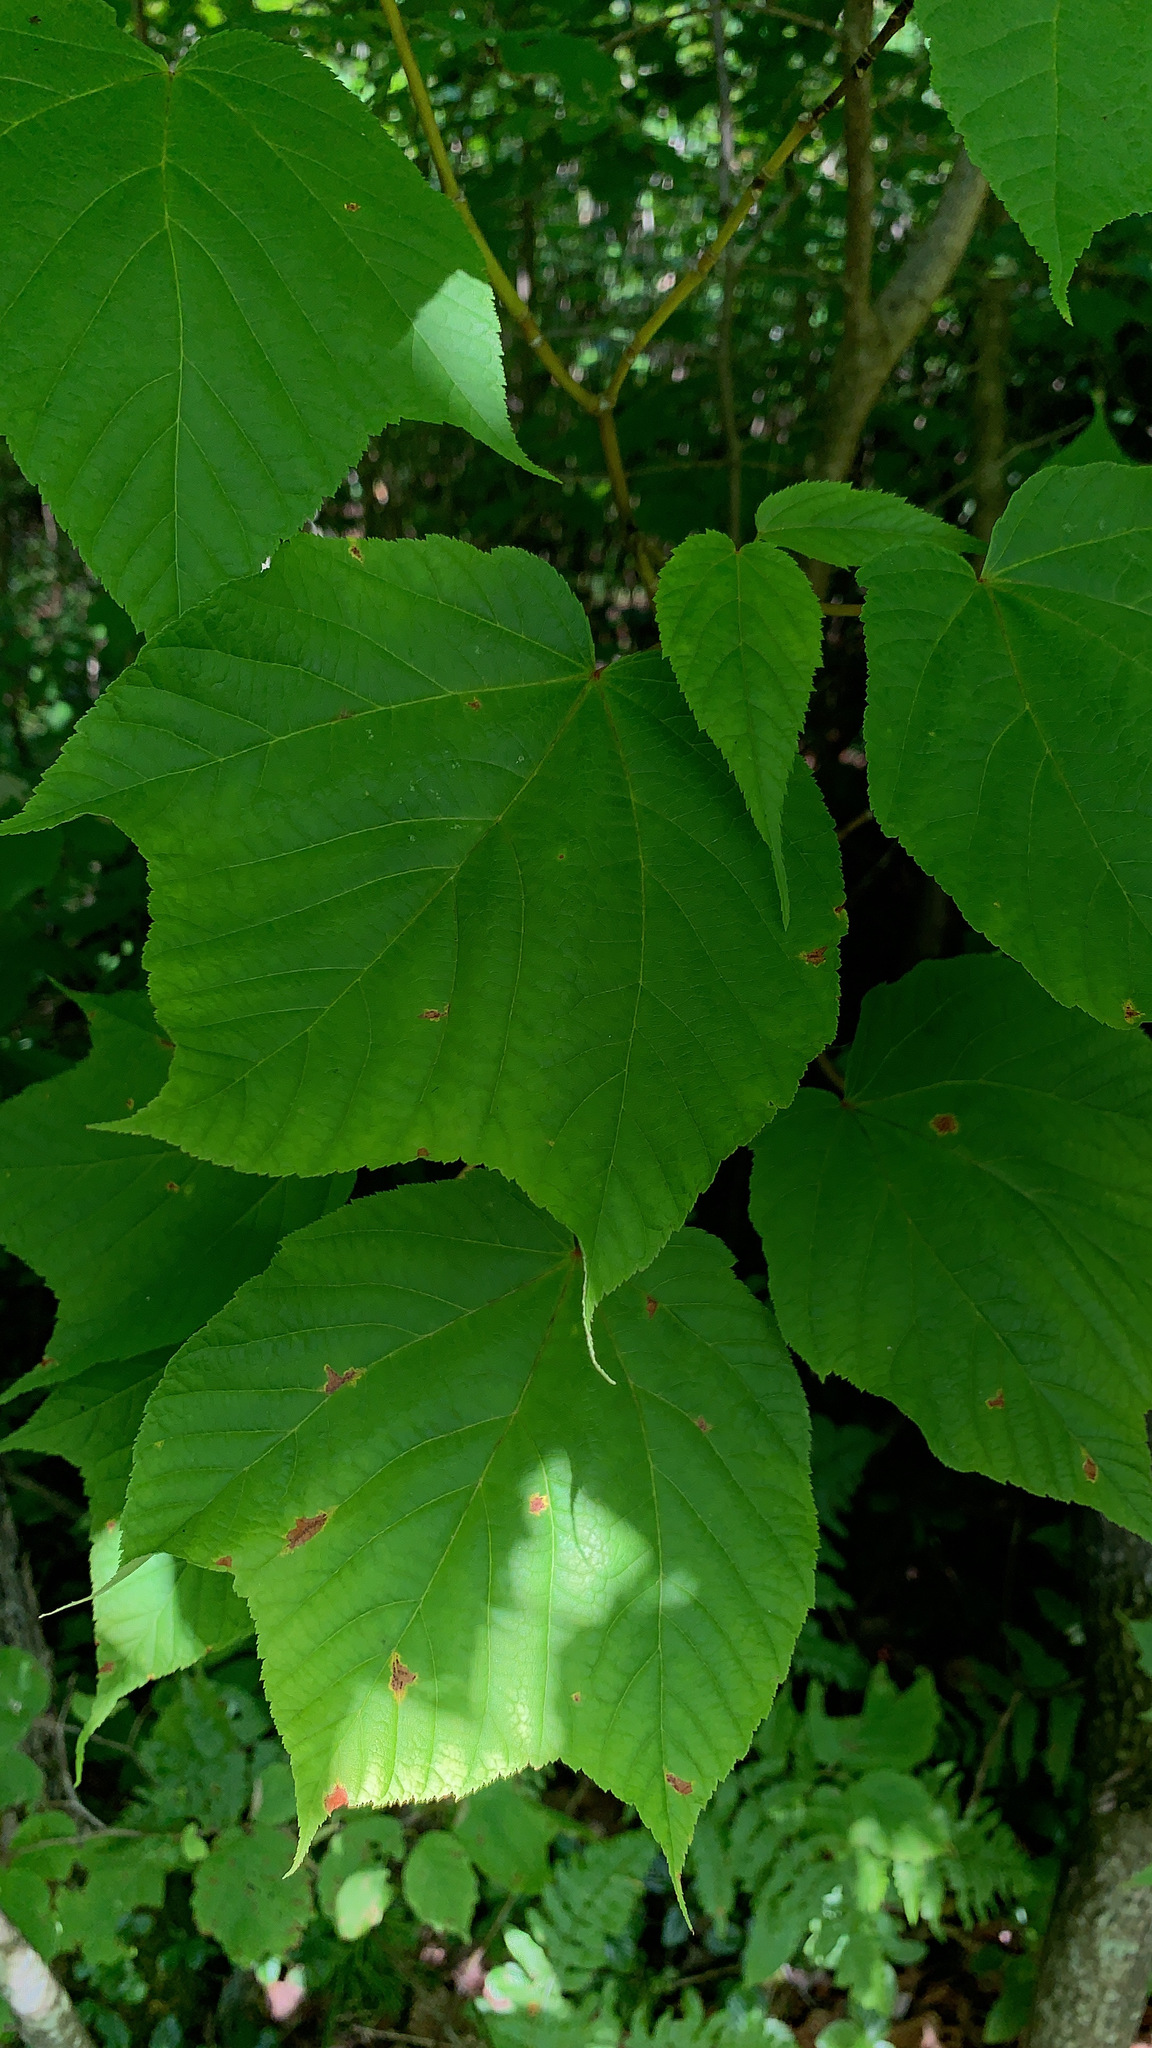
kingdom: Plantae
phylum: Tracheophyta
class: Magnoliopsida
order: Sapindales
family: Sapindaceae
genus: Acer
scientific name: Acer pensylvanicum
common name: Moosewood
